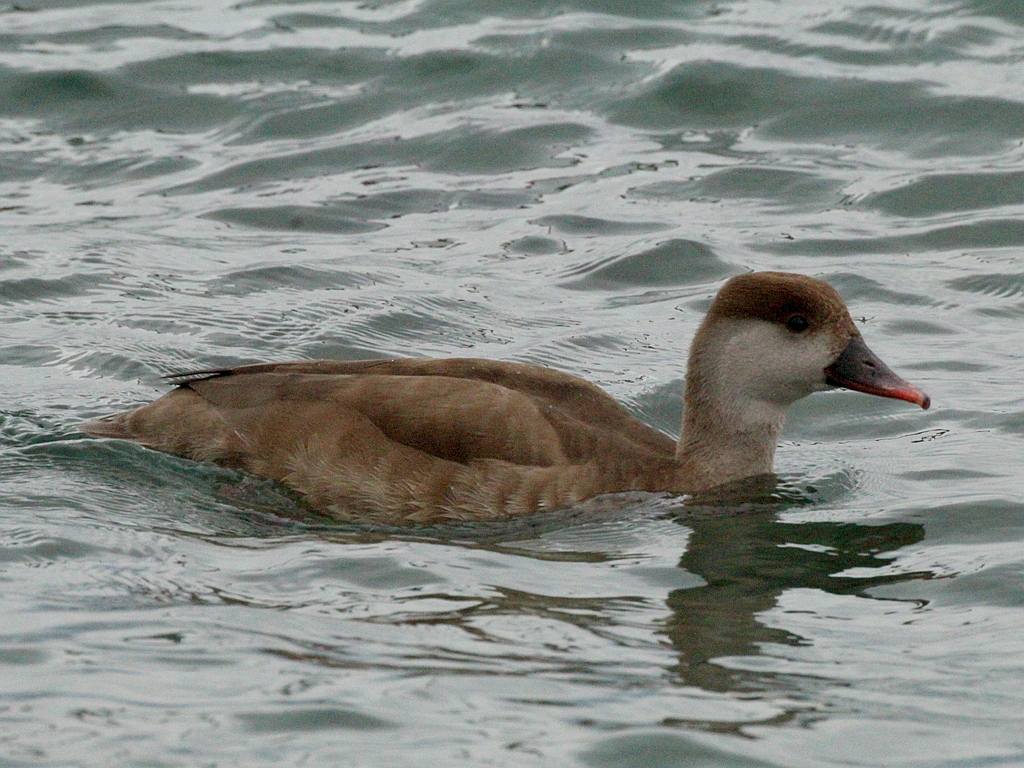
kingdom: Animalia
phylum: Chordata
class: Aves
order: Anseriformes
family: Anatidae
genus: Netta
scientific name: Netta rufina
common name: Red-crested pochard
